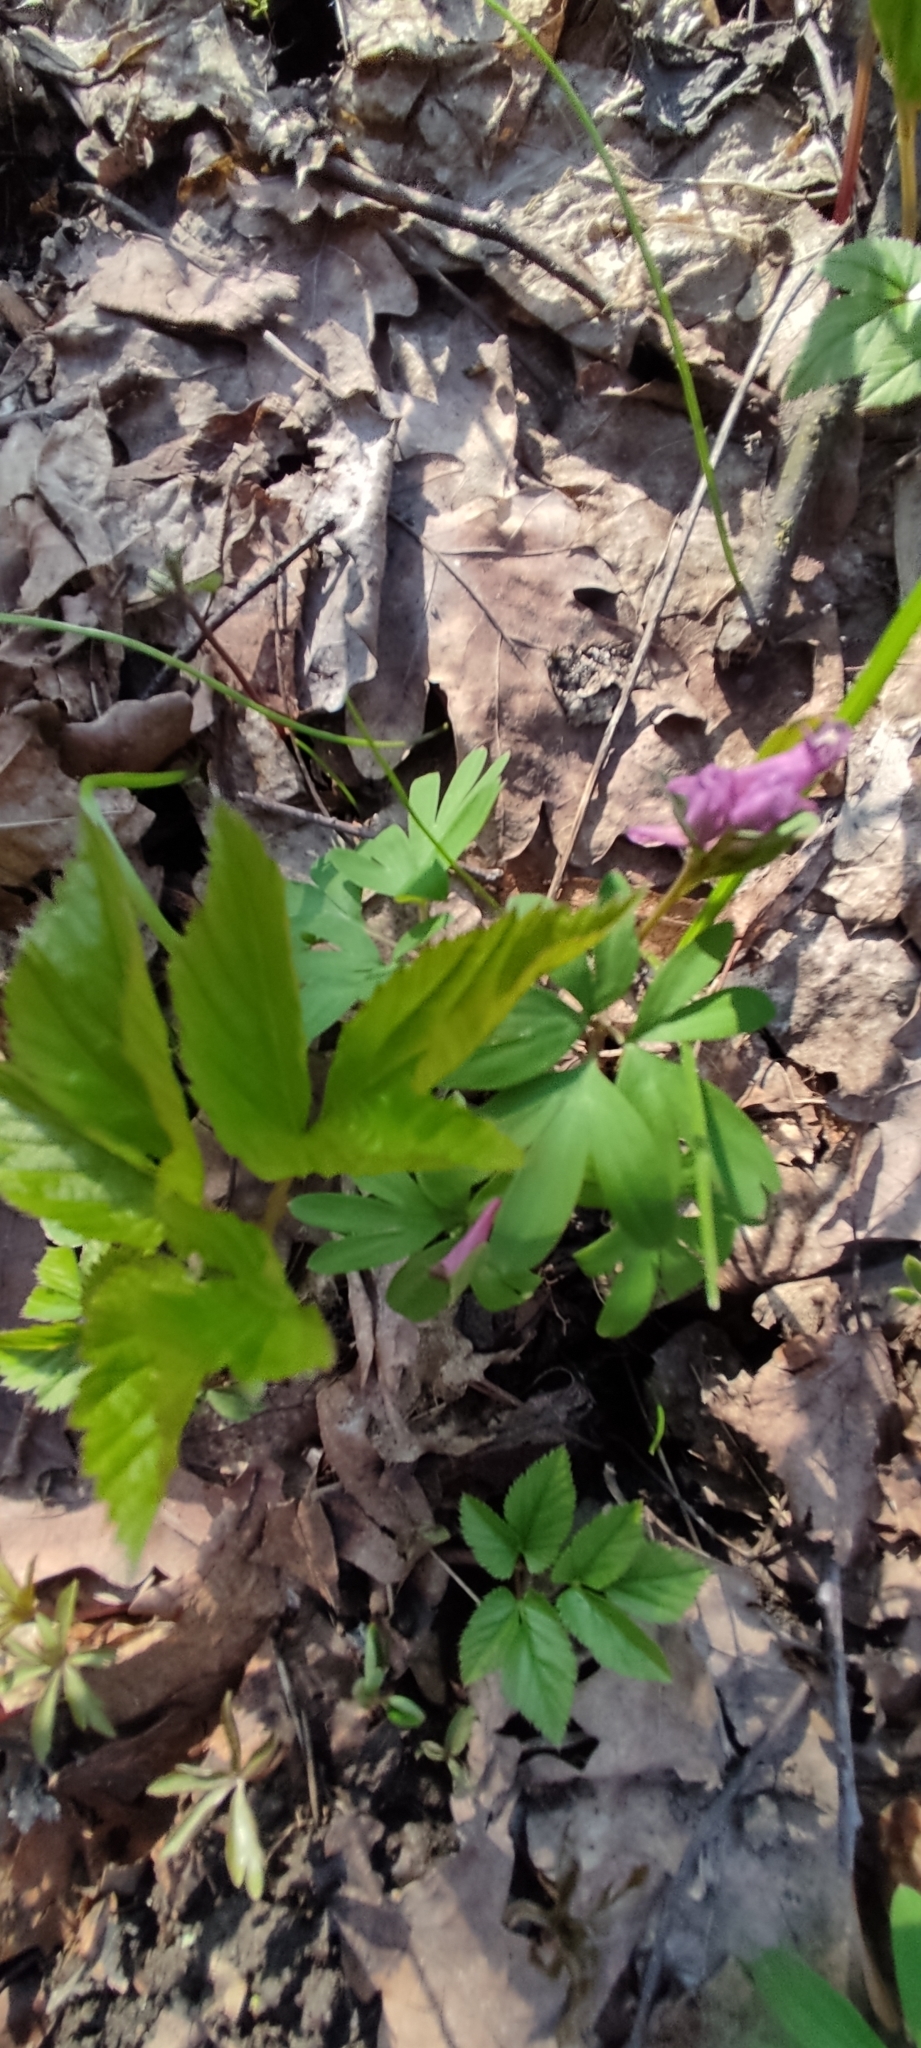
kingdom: Plantae
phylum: Tracheophyta
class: Magnoliopsida
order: Ranunculales
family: Papaveraceae
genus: Corydalis
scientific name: Corydalis intermedia
